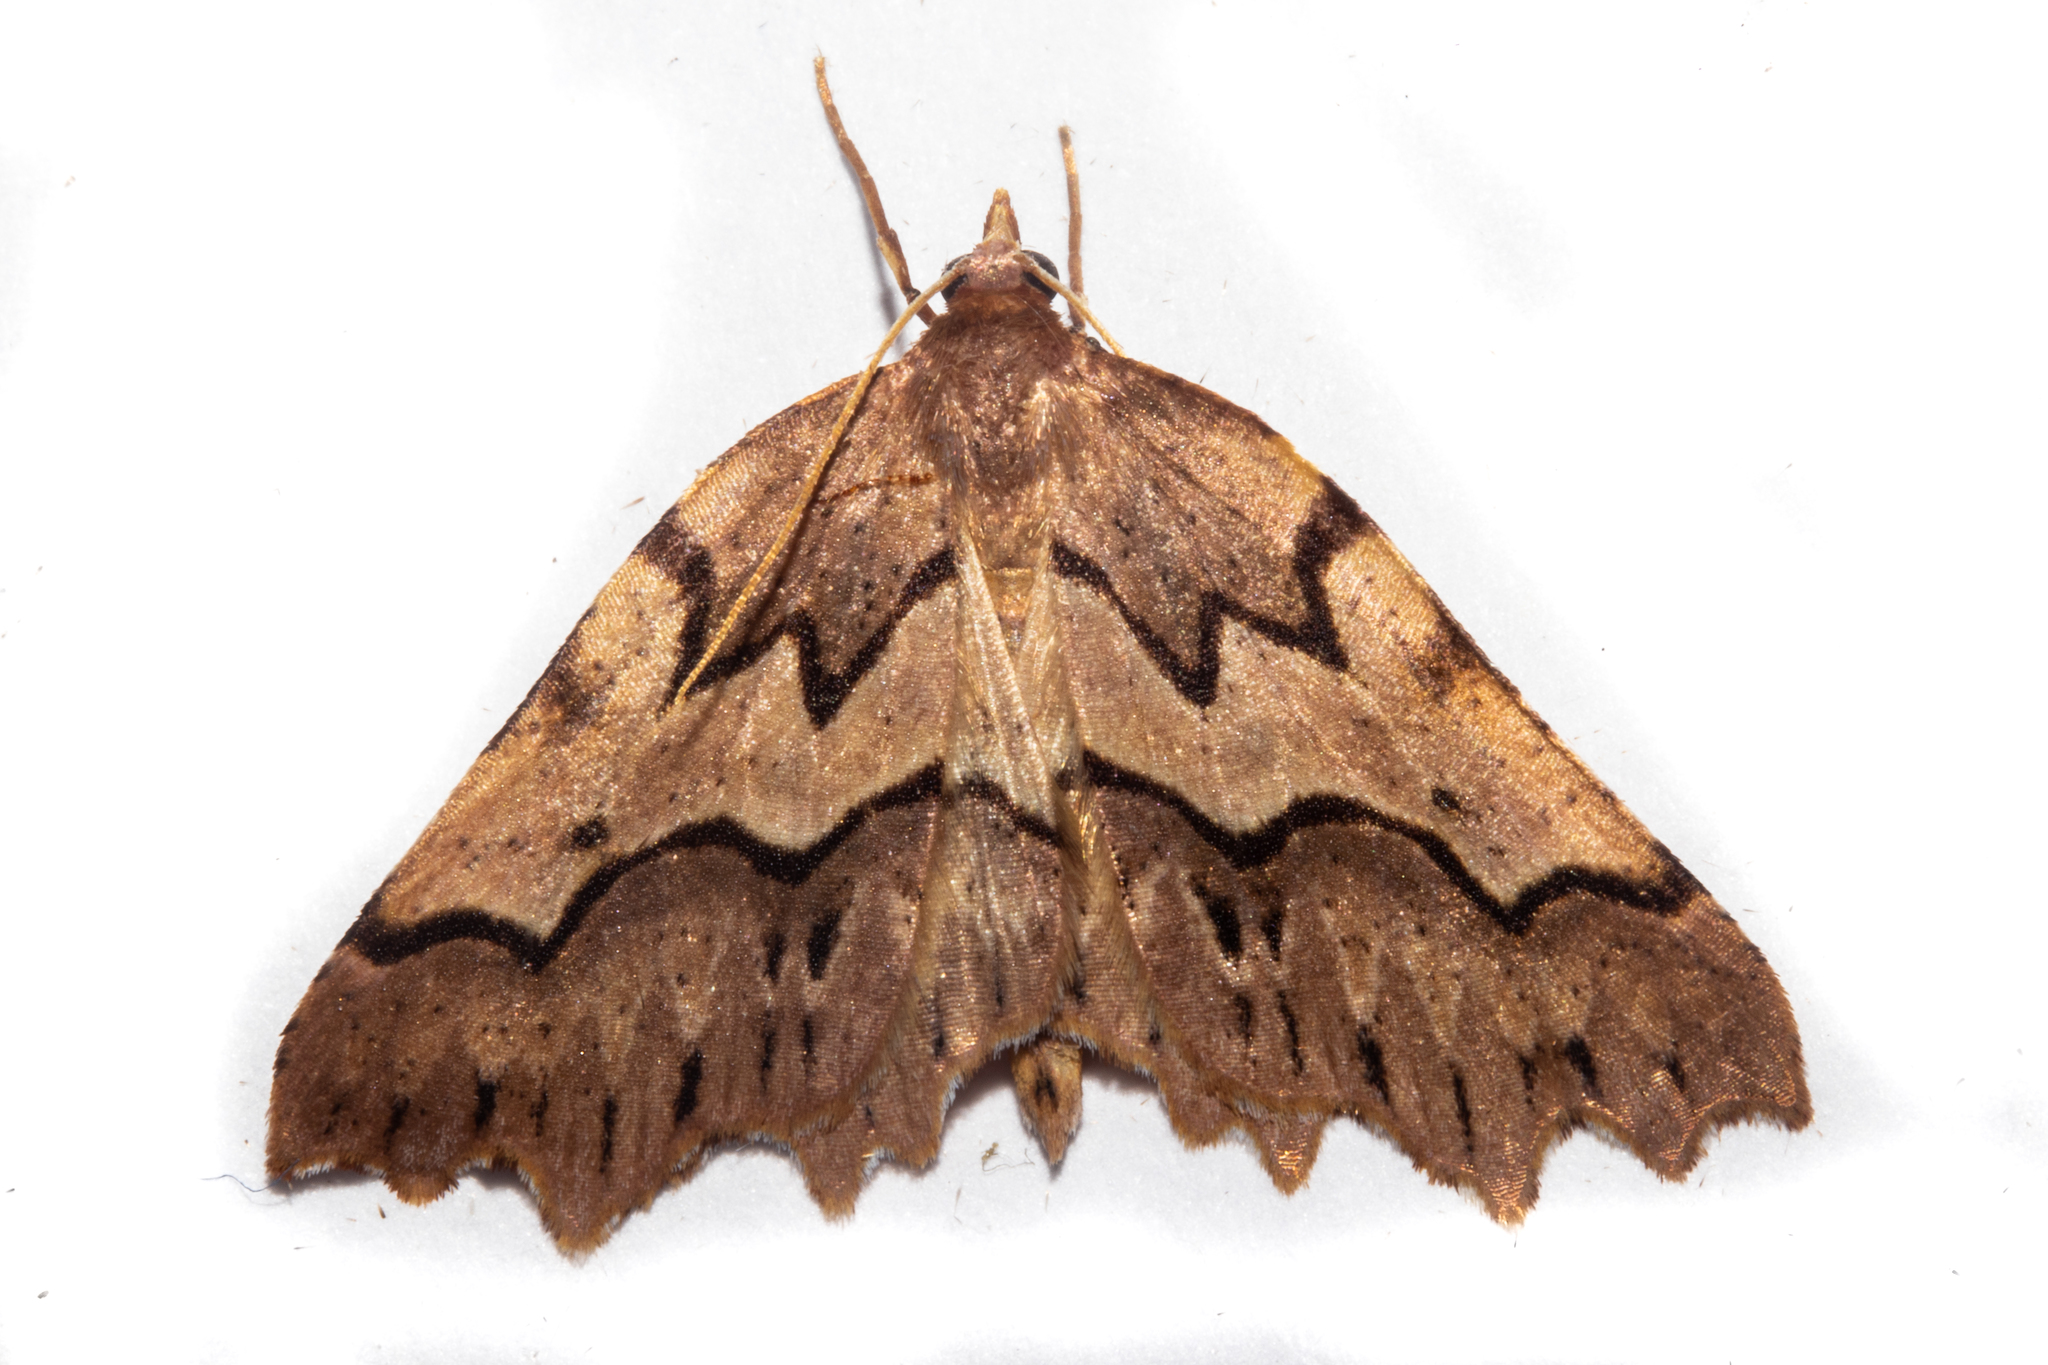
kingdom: Animalia
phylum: Arthropoda
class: Insecta
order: Lepidoptera
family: Geometridae
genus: Ischalis
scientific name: Ischalis fortinata
